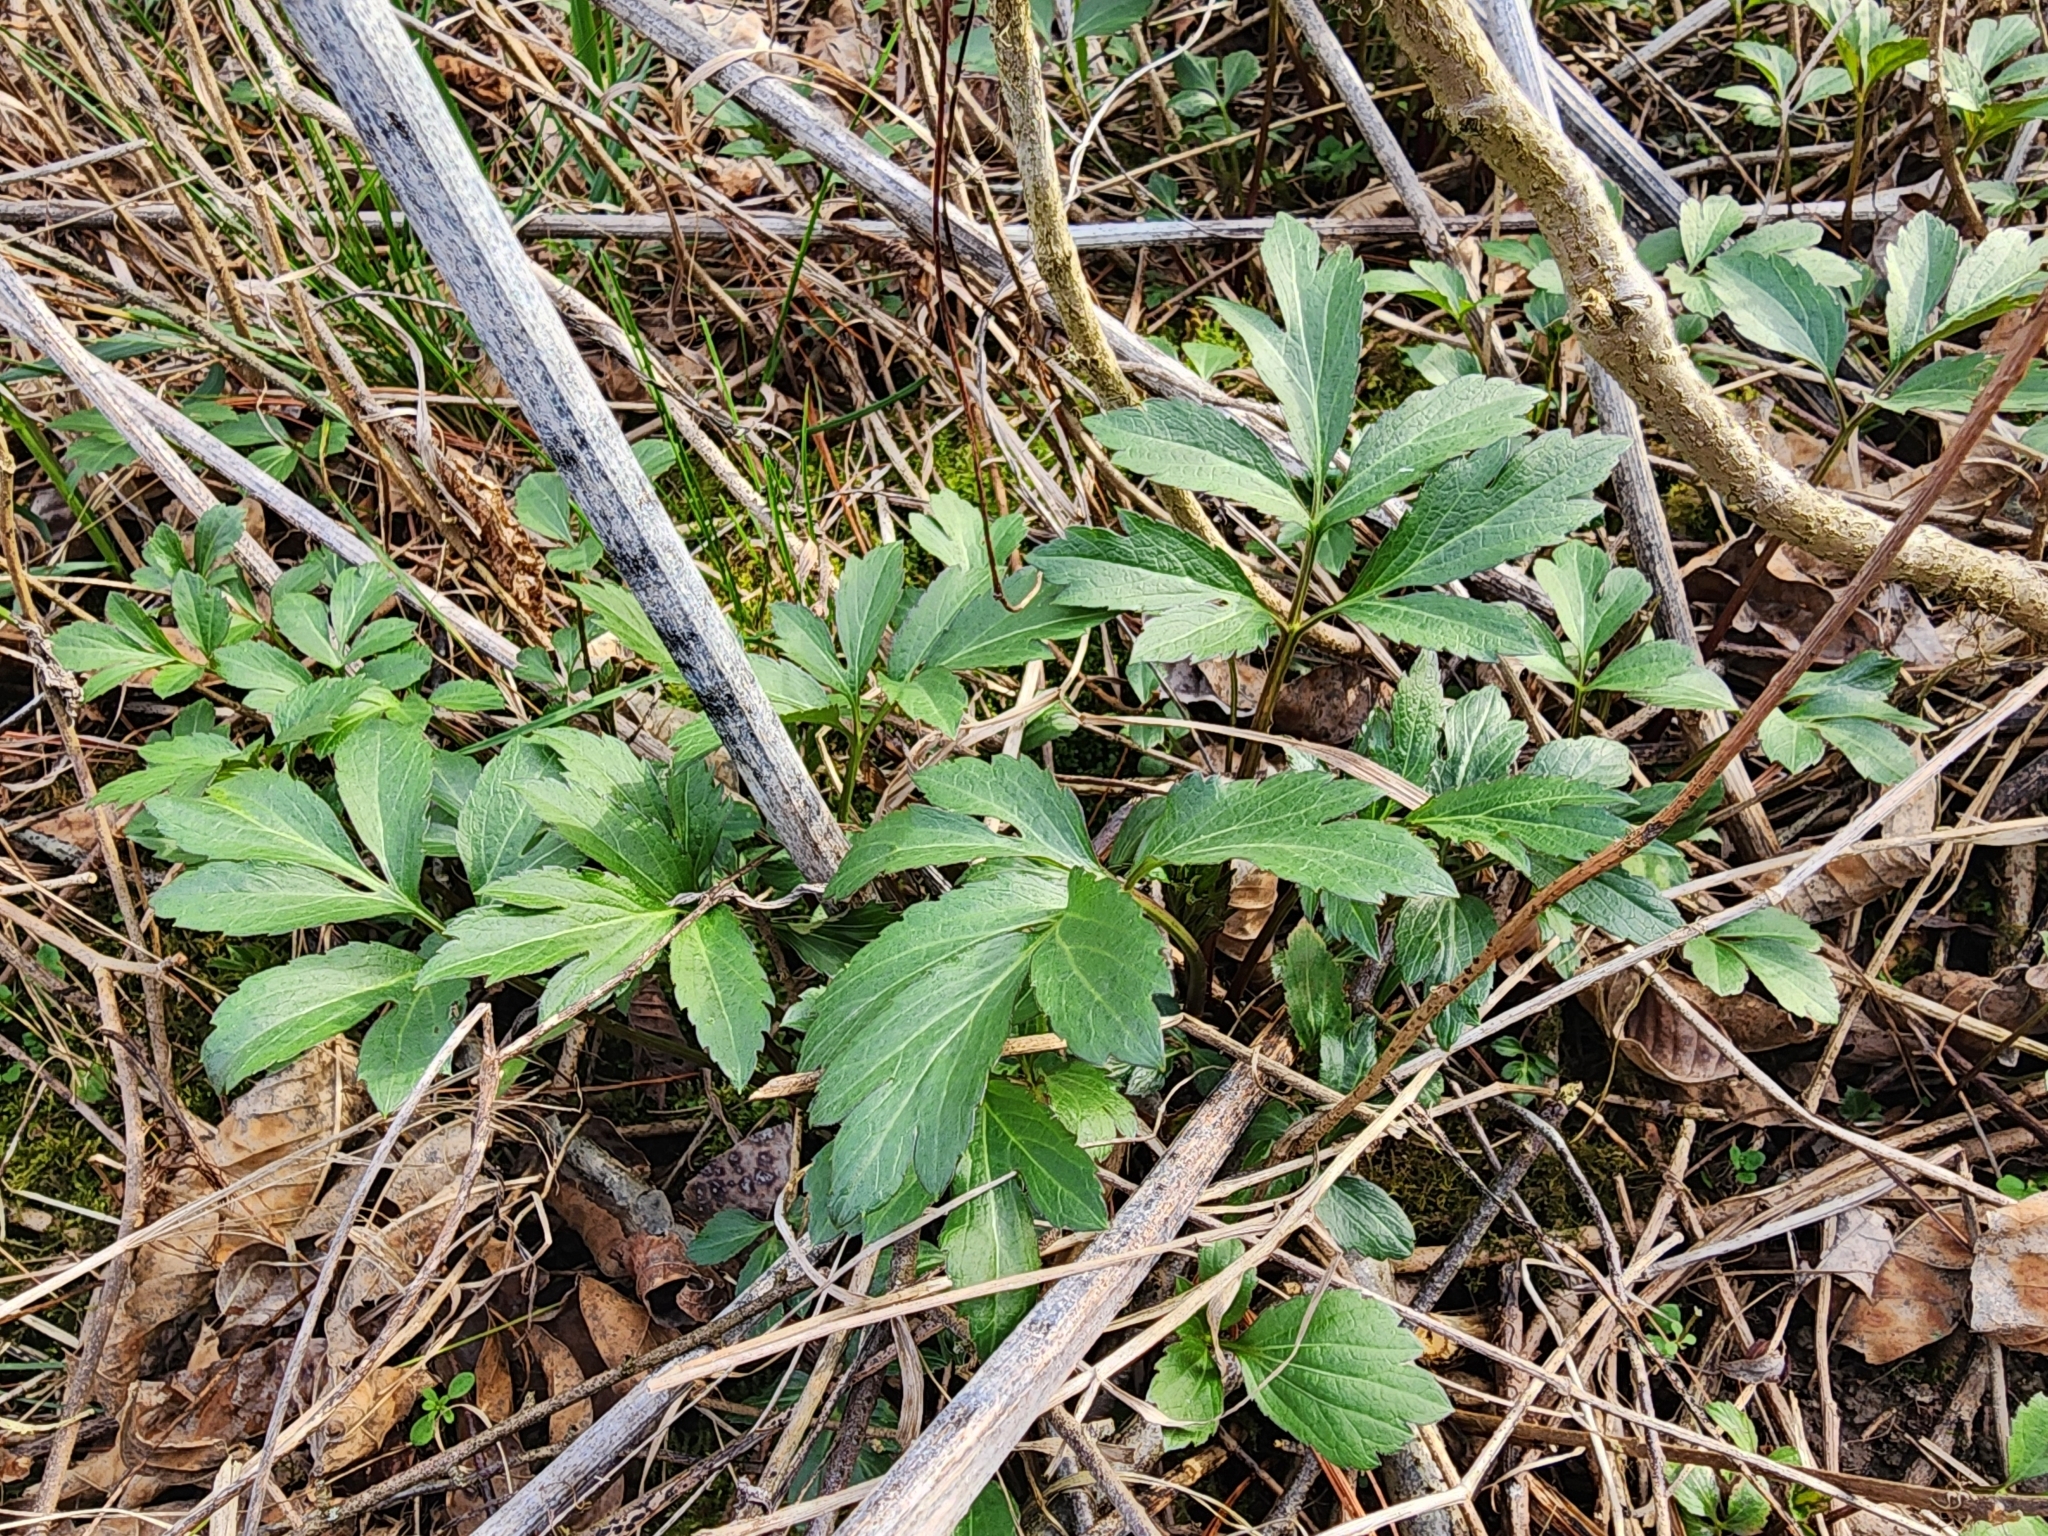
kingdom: Plantae
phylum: Tracheophyta
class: Magnoliopsida
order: Asterales
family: Asteraceae
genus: Rudbeckia
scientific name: Rudbeckia laciniata
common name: Coneflower
